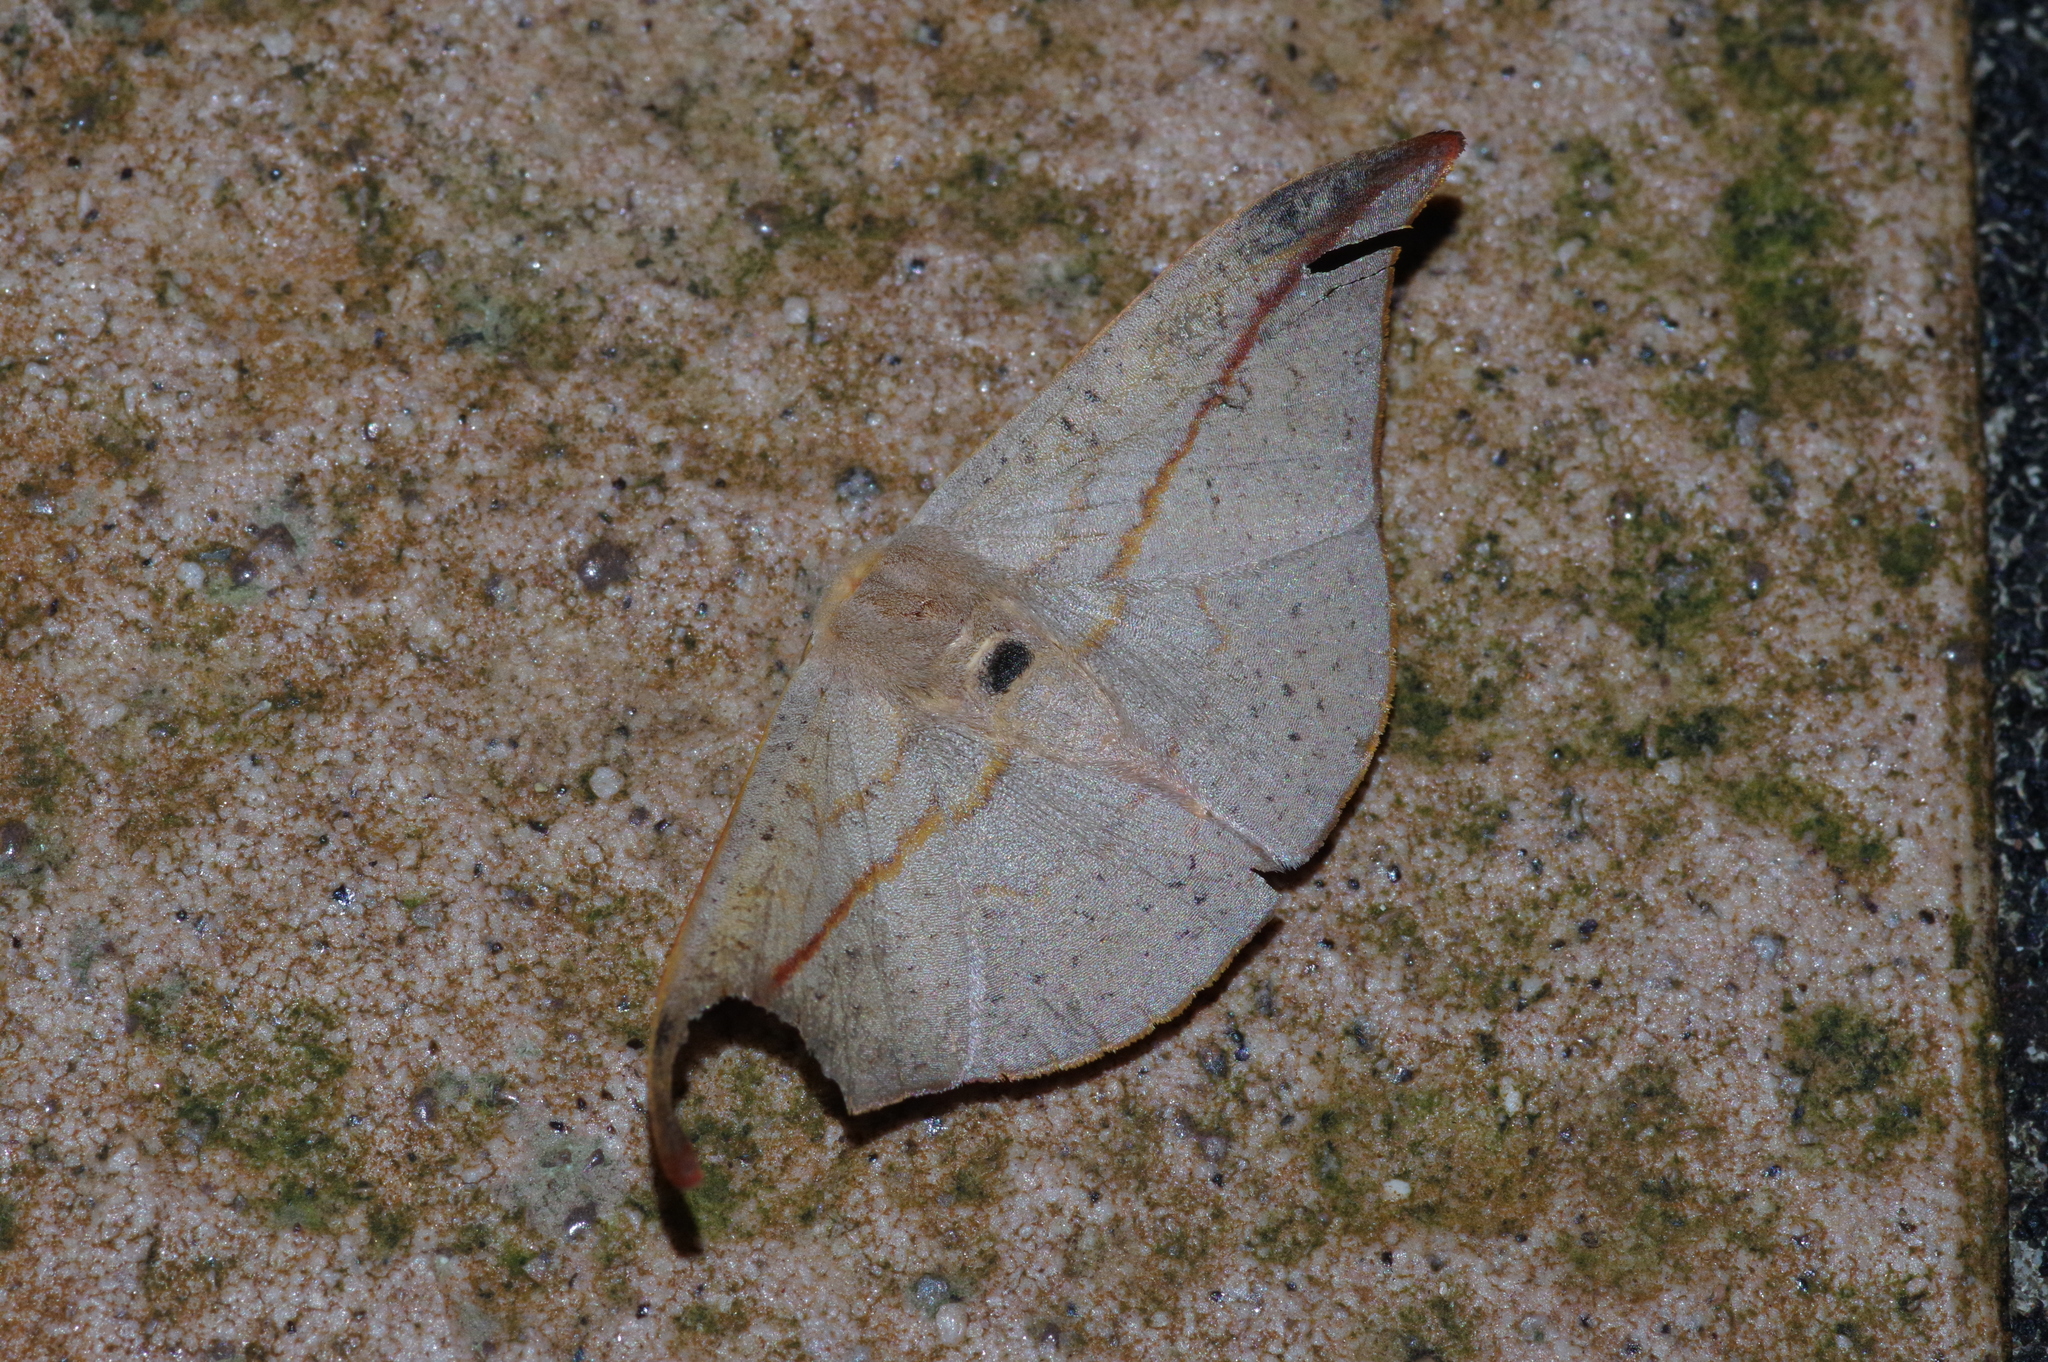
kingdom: Animalia
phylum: Arthropoda
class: Insecta
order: Lepidoptera
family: Drepanidae
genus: Oreta
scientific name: Oreta insignis
